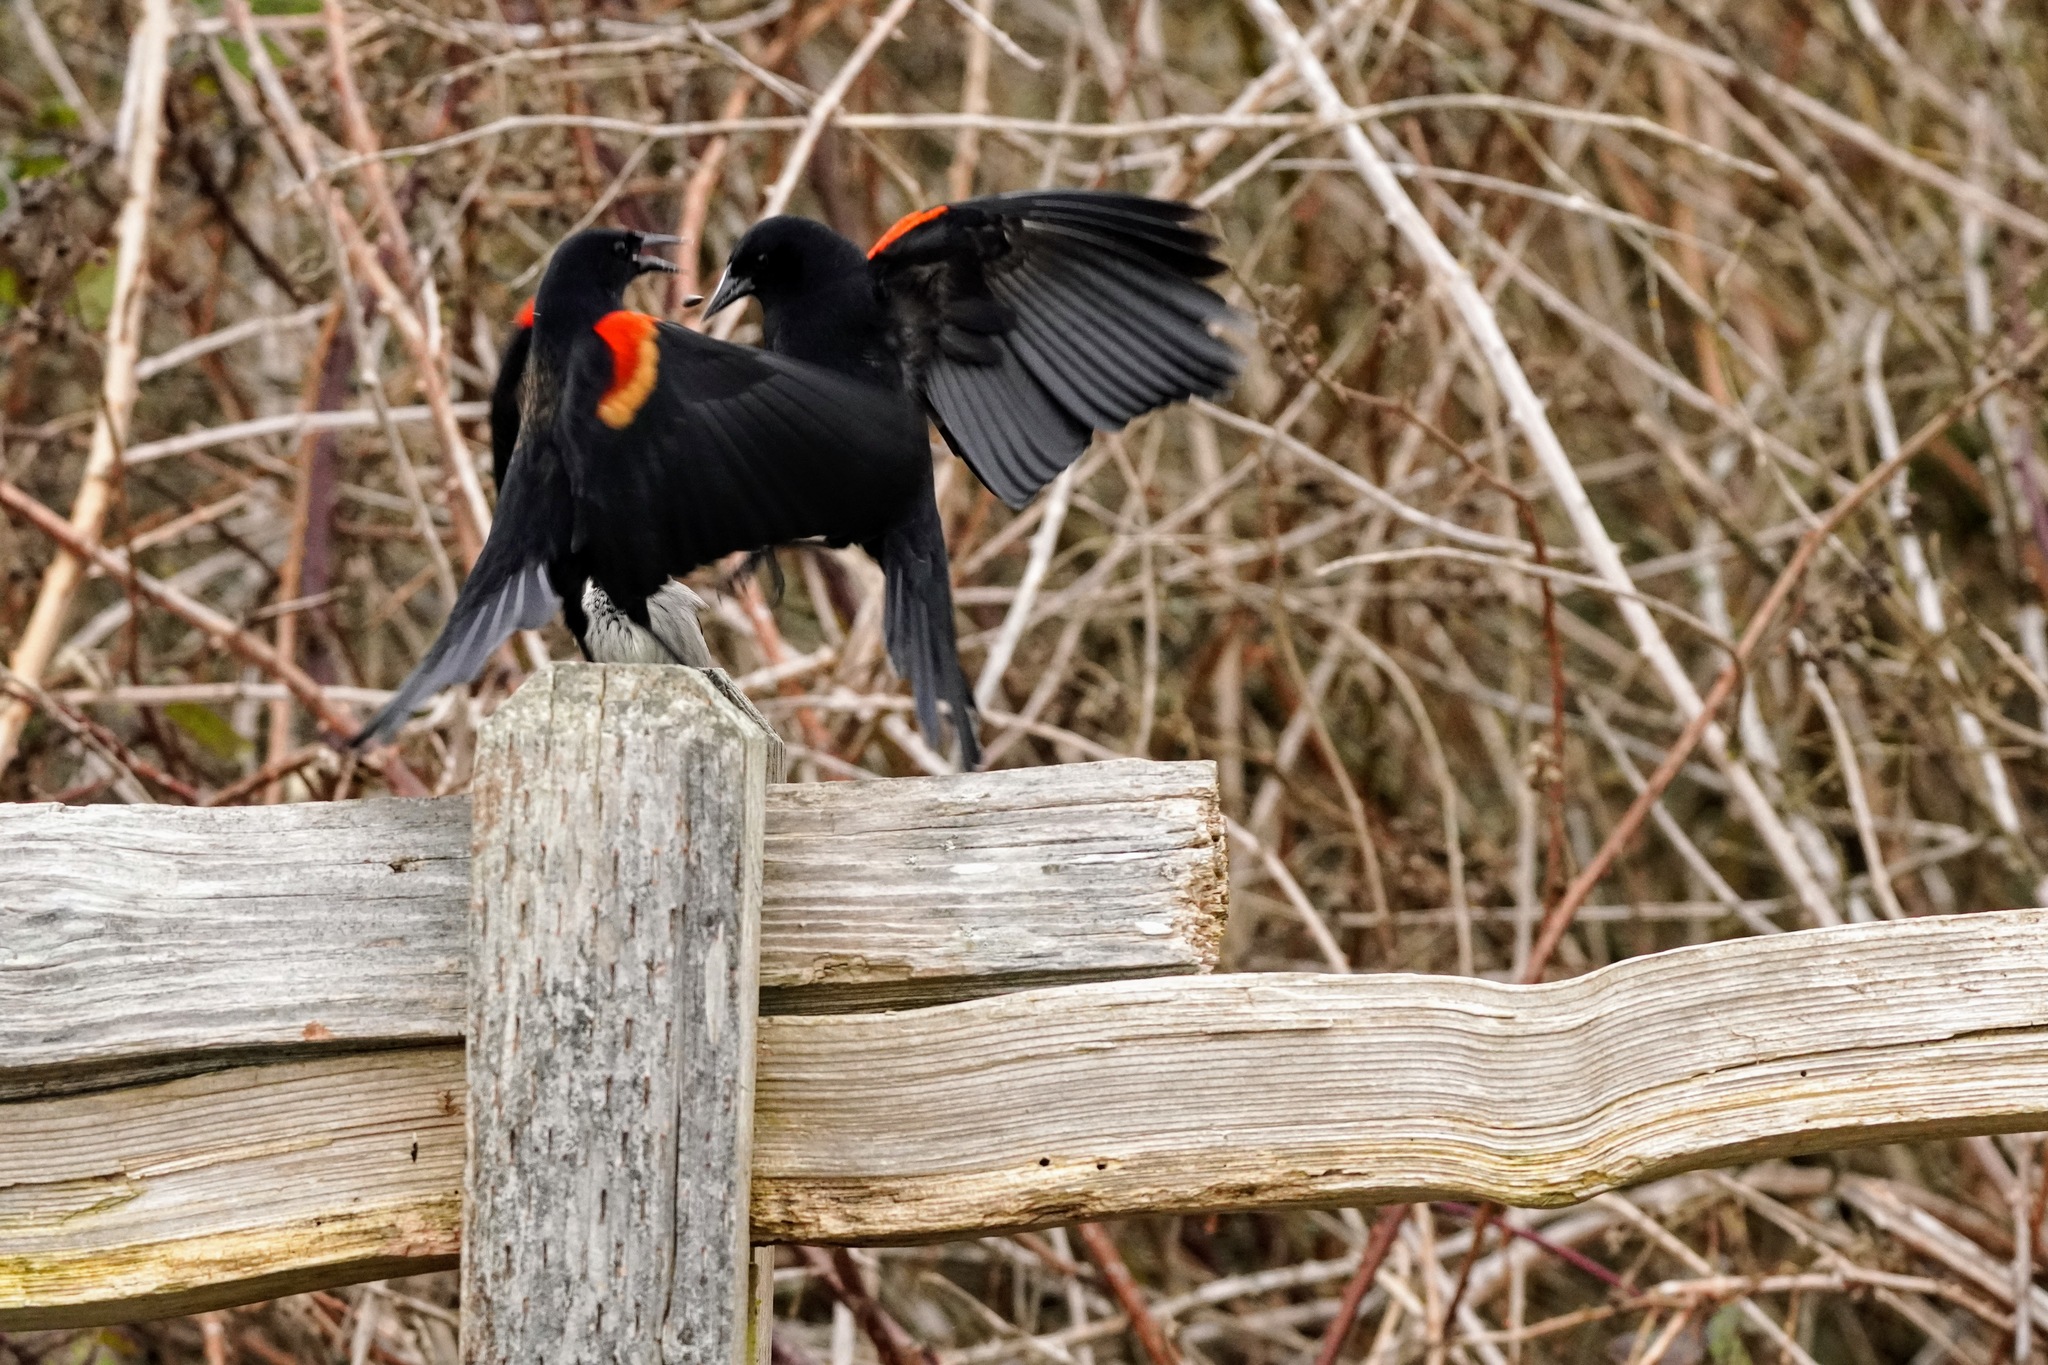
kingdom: Animalia
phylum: Chordata
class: Aves
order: Passeriformes
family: Icteridae
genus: Agelaius
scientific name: Agelaius phoeniceus
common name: Red-winged blackbird
